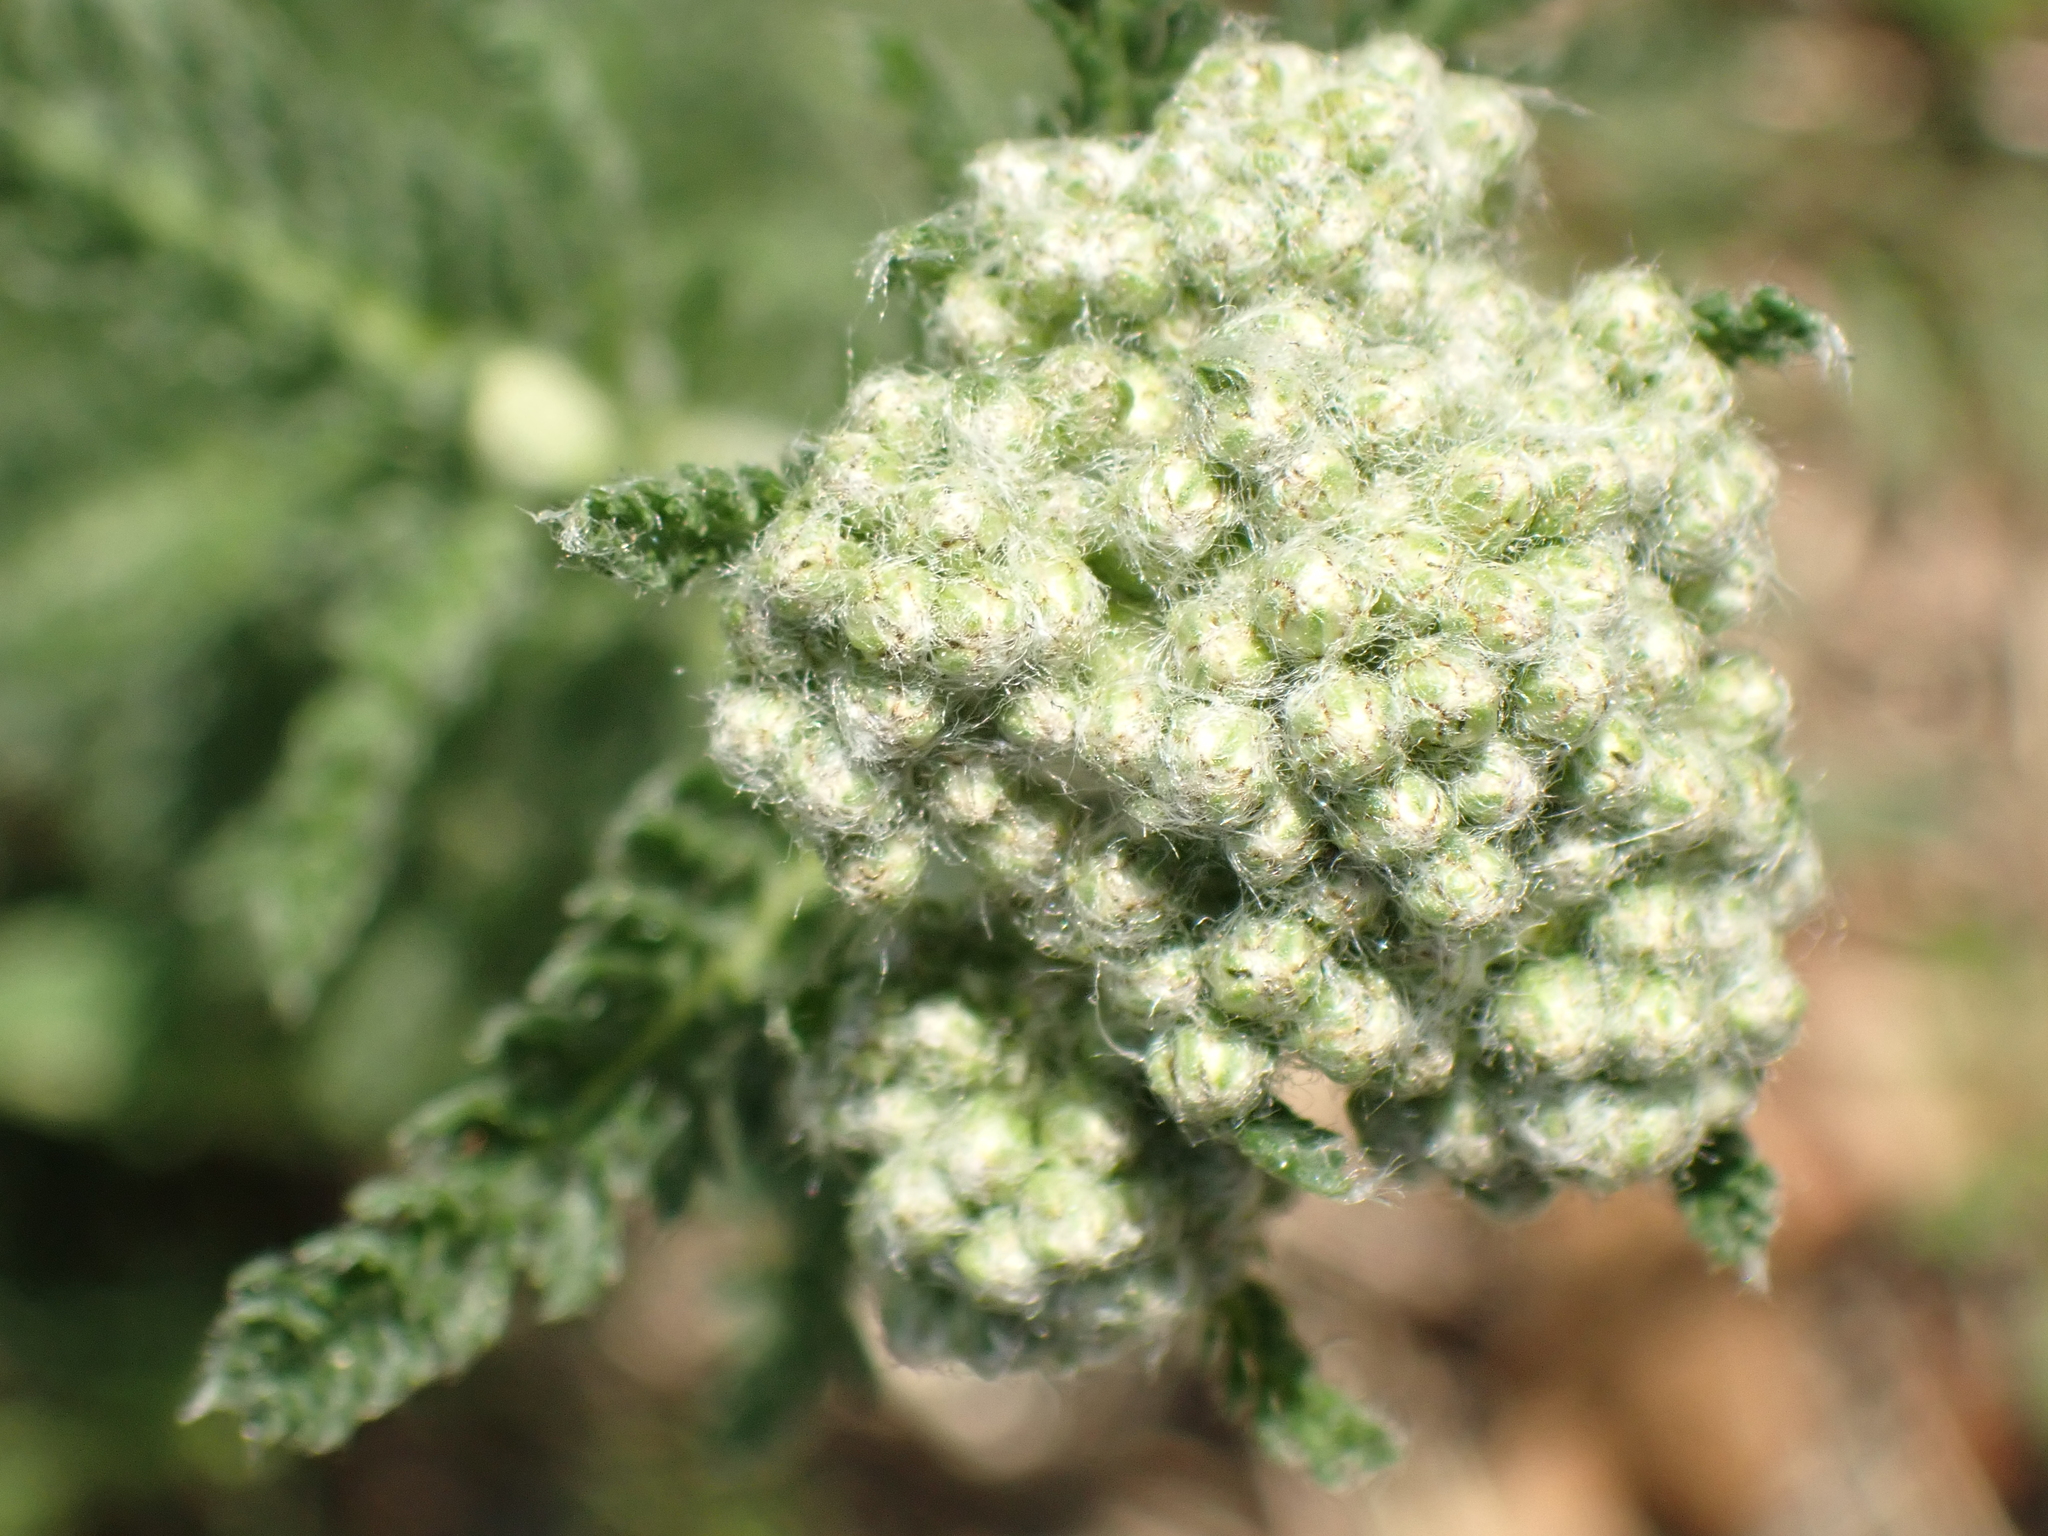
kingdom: Plantae
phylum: Tracheophyta
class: Magnoliopsida
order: Asterales
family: Asteraceae
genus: Achillea
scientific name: Achillea millefolium
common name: Yarrow
